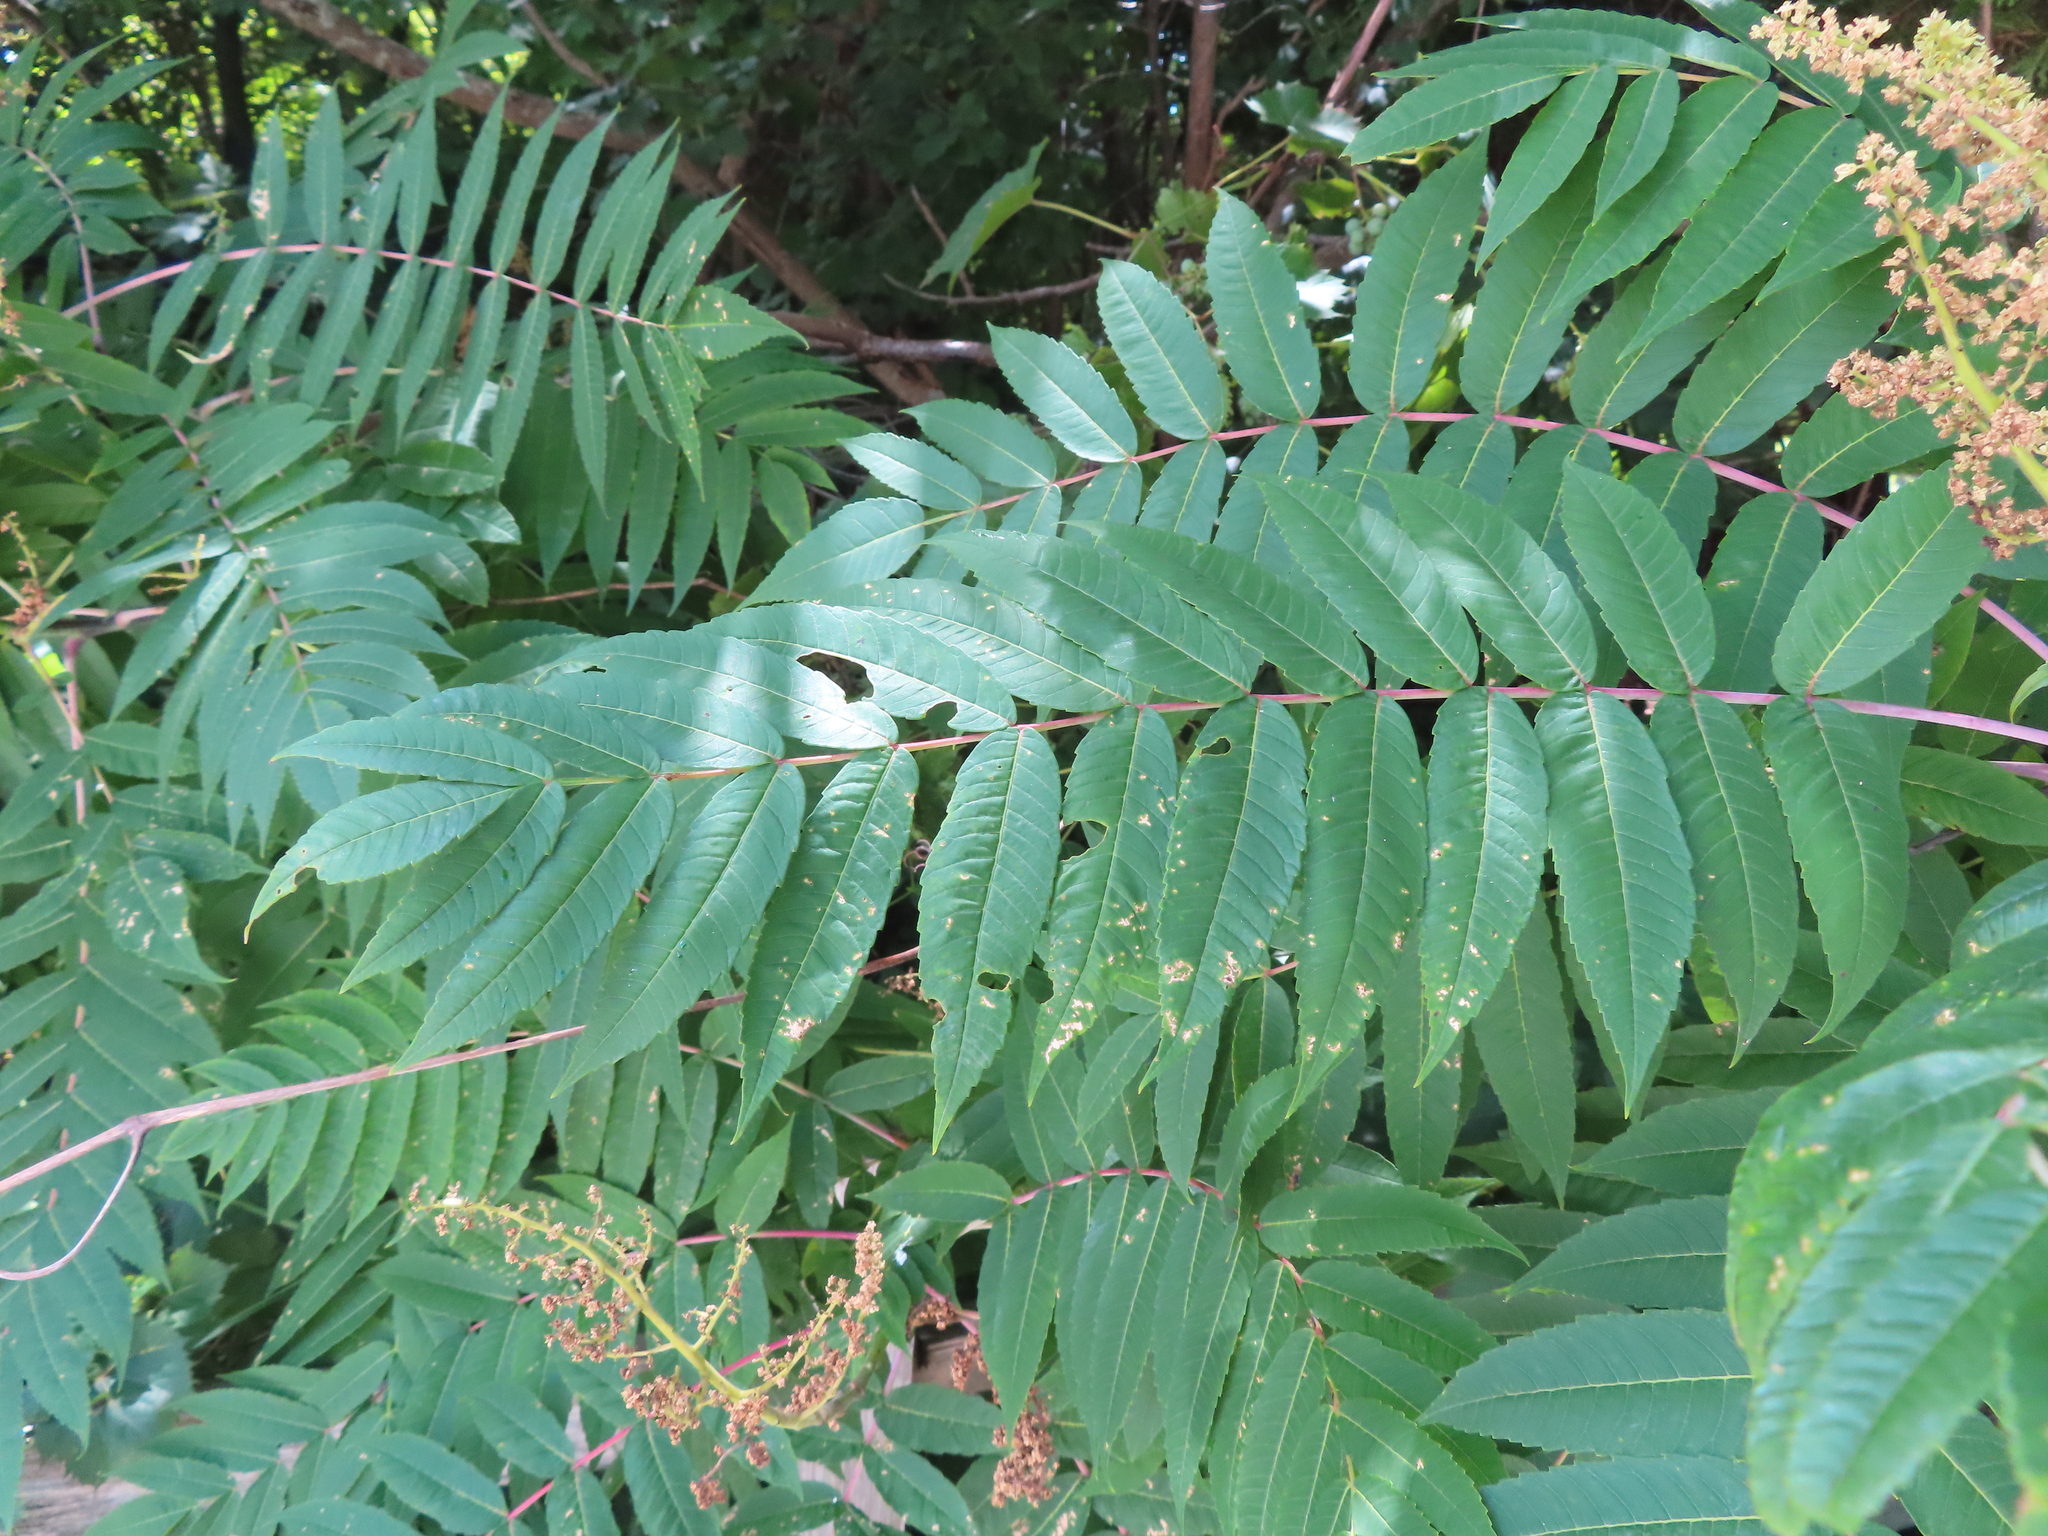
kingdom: Plantae
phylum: Tracheophyta
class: Magnoliopsida
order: Sapindales
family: Anacardiaceae
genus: Rhus
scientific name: Rhus glabra
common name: Scarlet sumac
